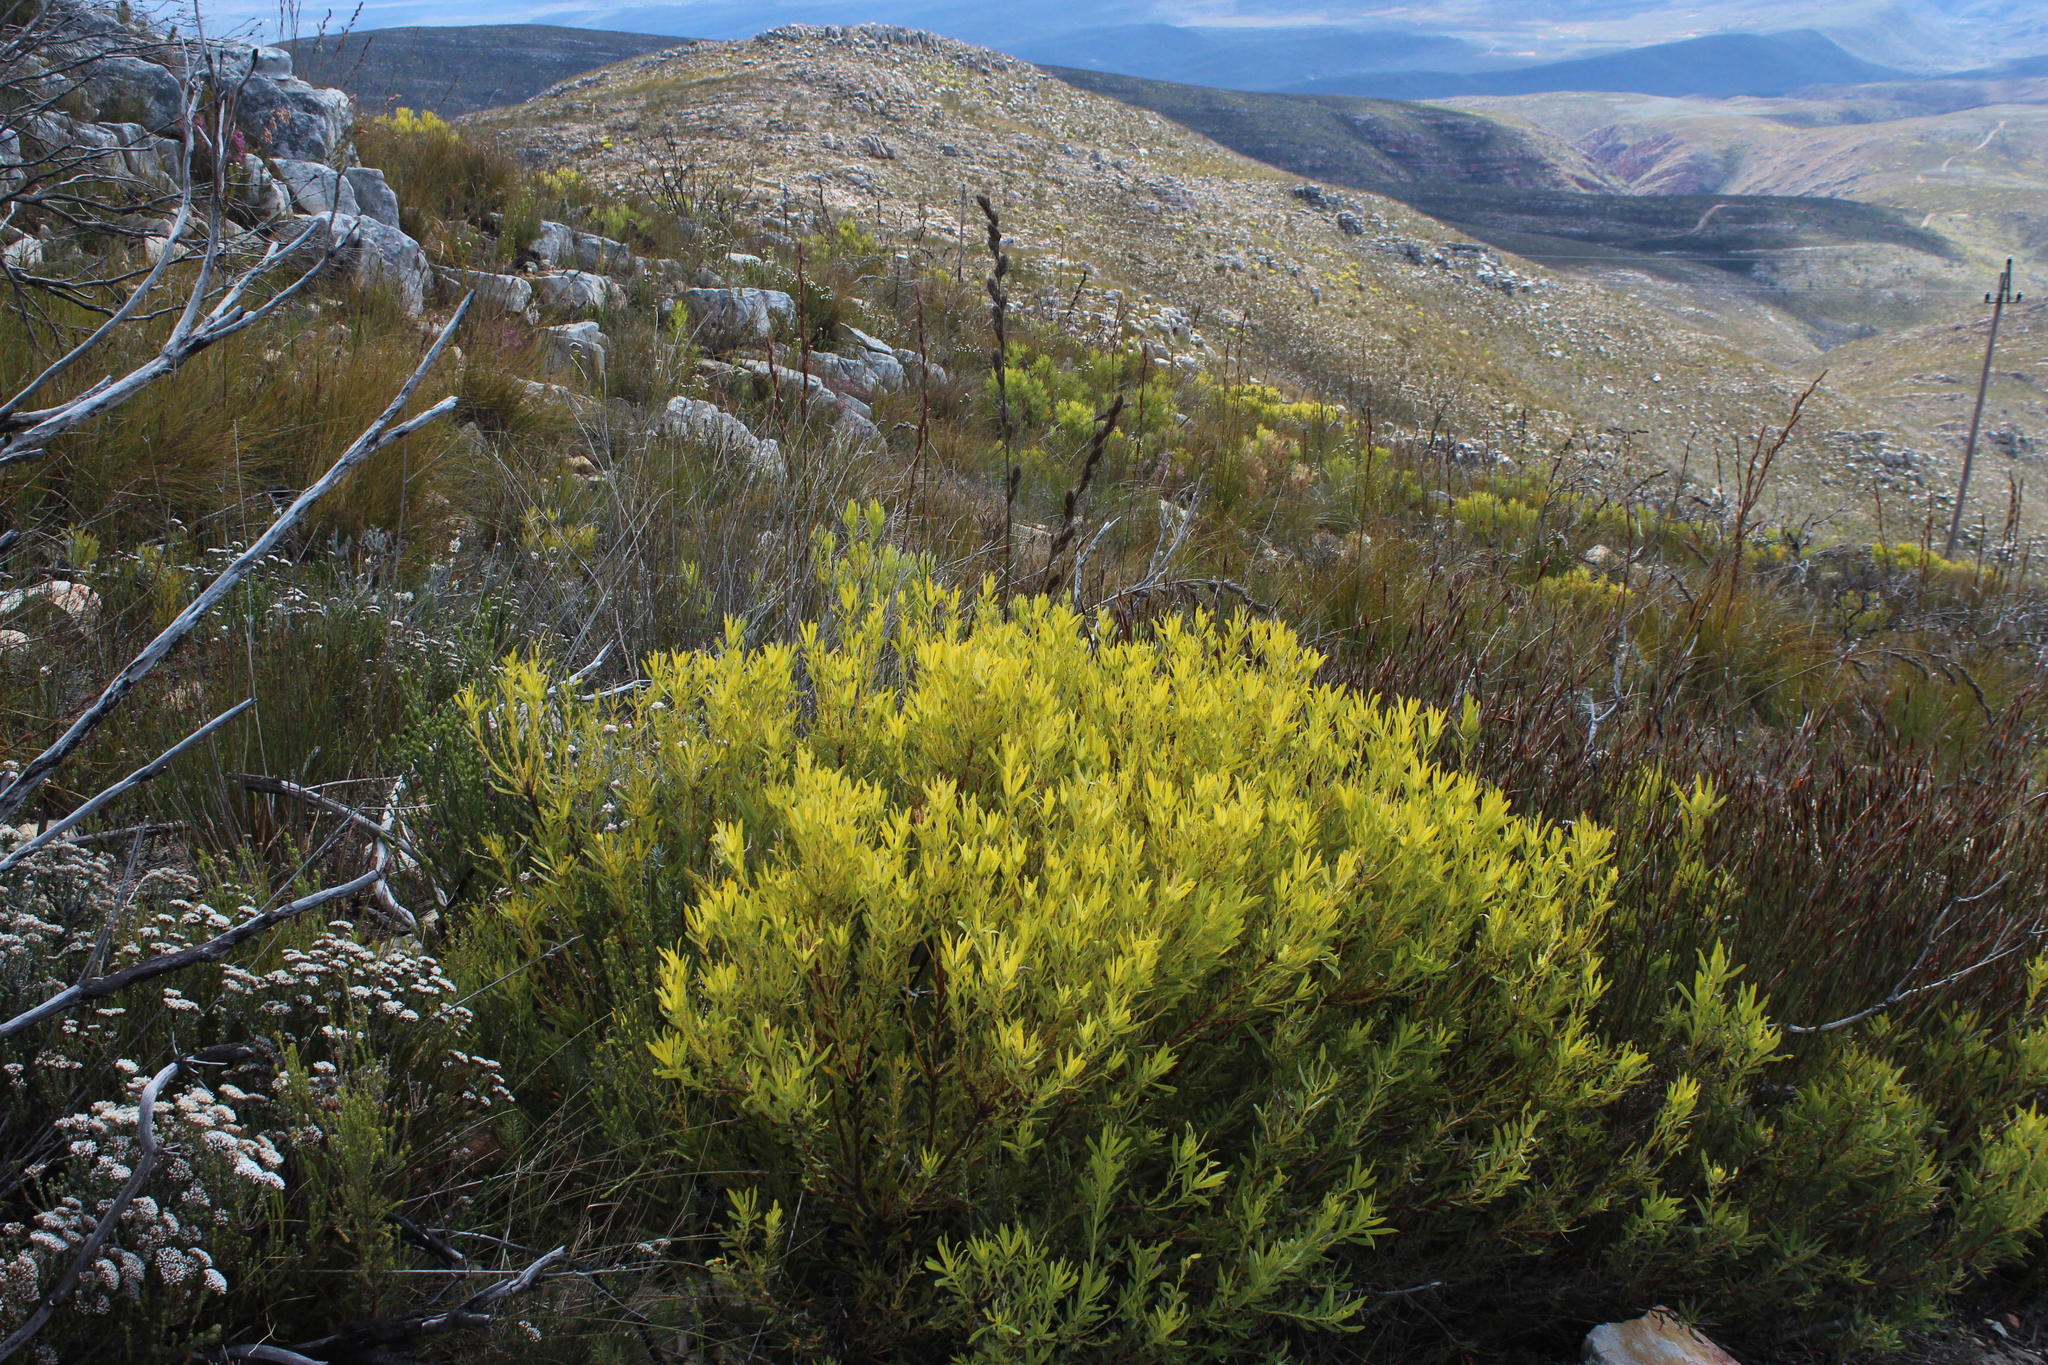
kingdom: Plantae
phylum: Tracheophyta
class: Magnoliopsida
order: Proteales
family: Proteaceae
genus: Leucadendron
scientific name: Leucadendron salignum
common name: Common sunshine conebush
